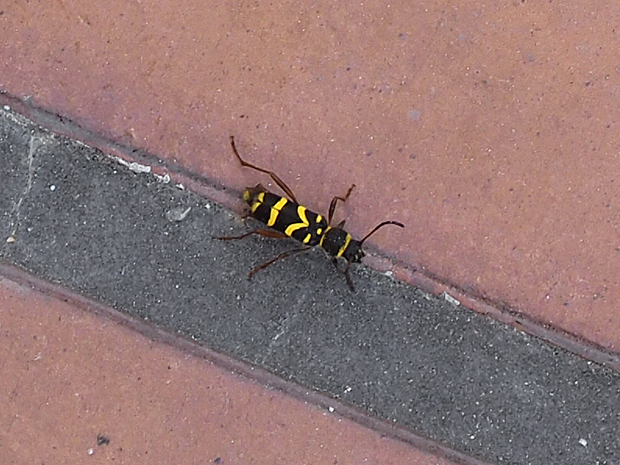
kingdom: Animalia
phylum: Arthropoda
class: Insecta
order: Coleoptera
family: Cerambycidae
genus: Clytus
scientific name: Clytus arietis
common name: Wasp beetle
